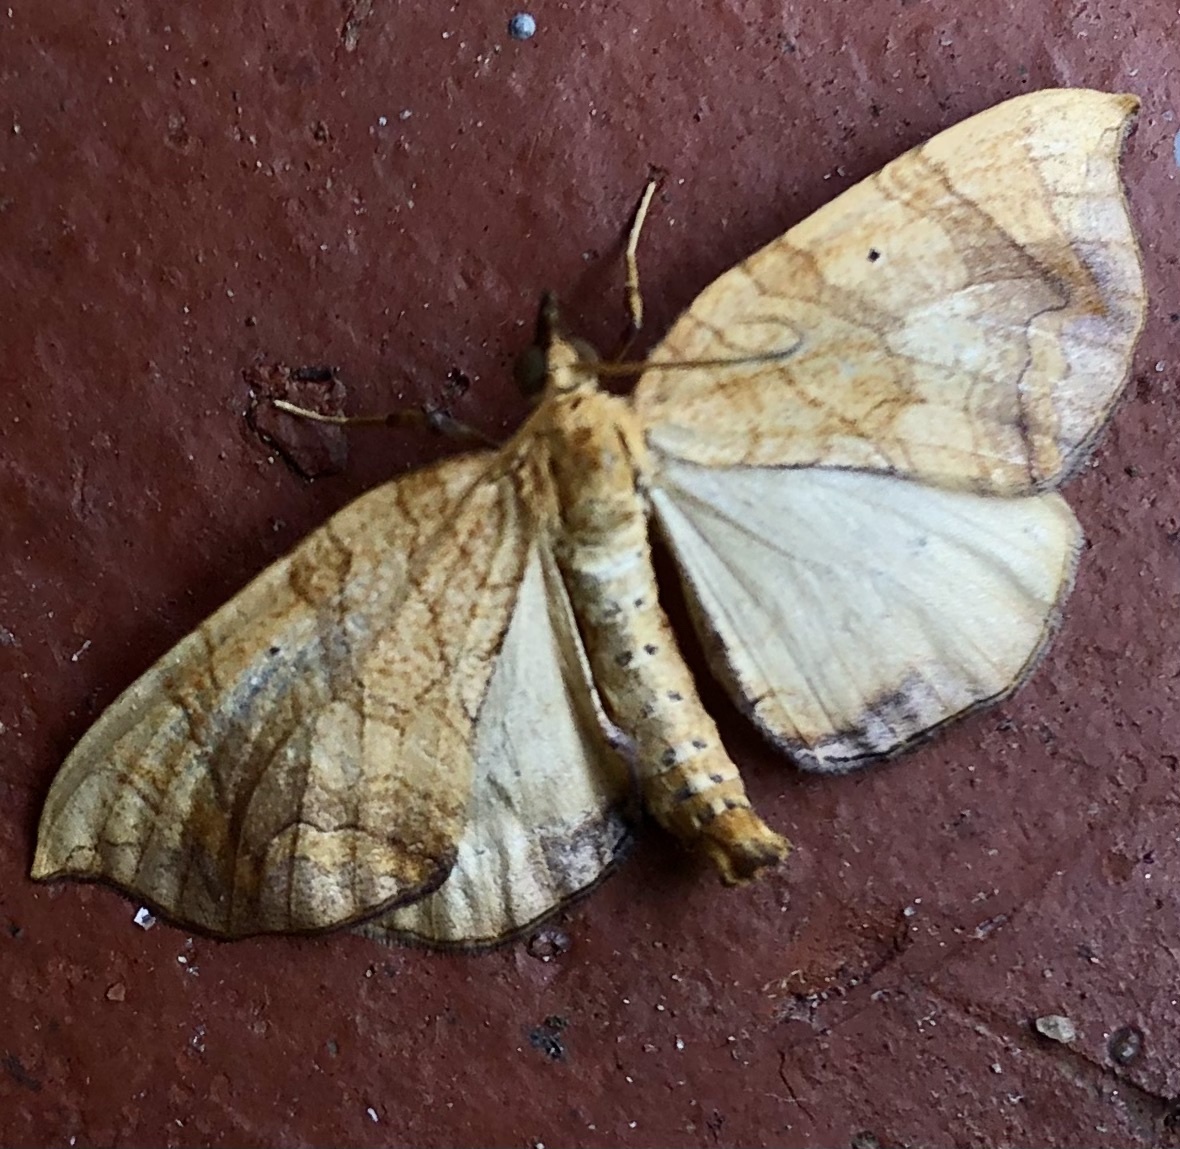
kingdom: Animalia
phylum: Arthropoda
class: Insecta
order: Lepidoptera
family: Geometridae
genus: Eulithis
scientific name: Eulithis gracilineata
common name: Greater grapevine looper moth
